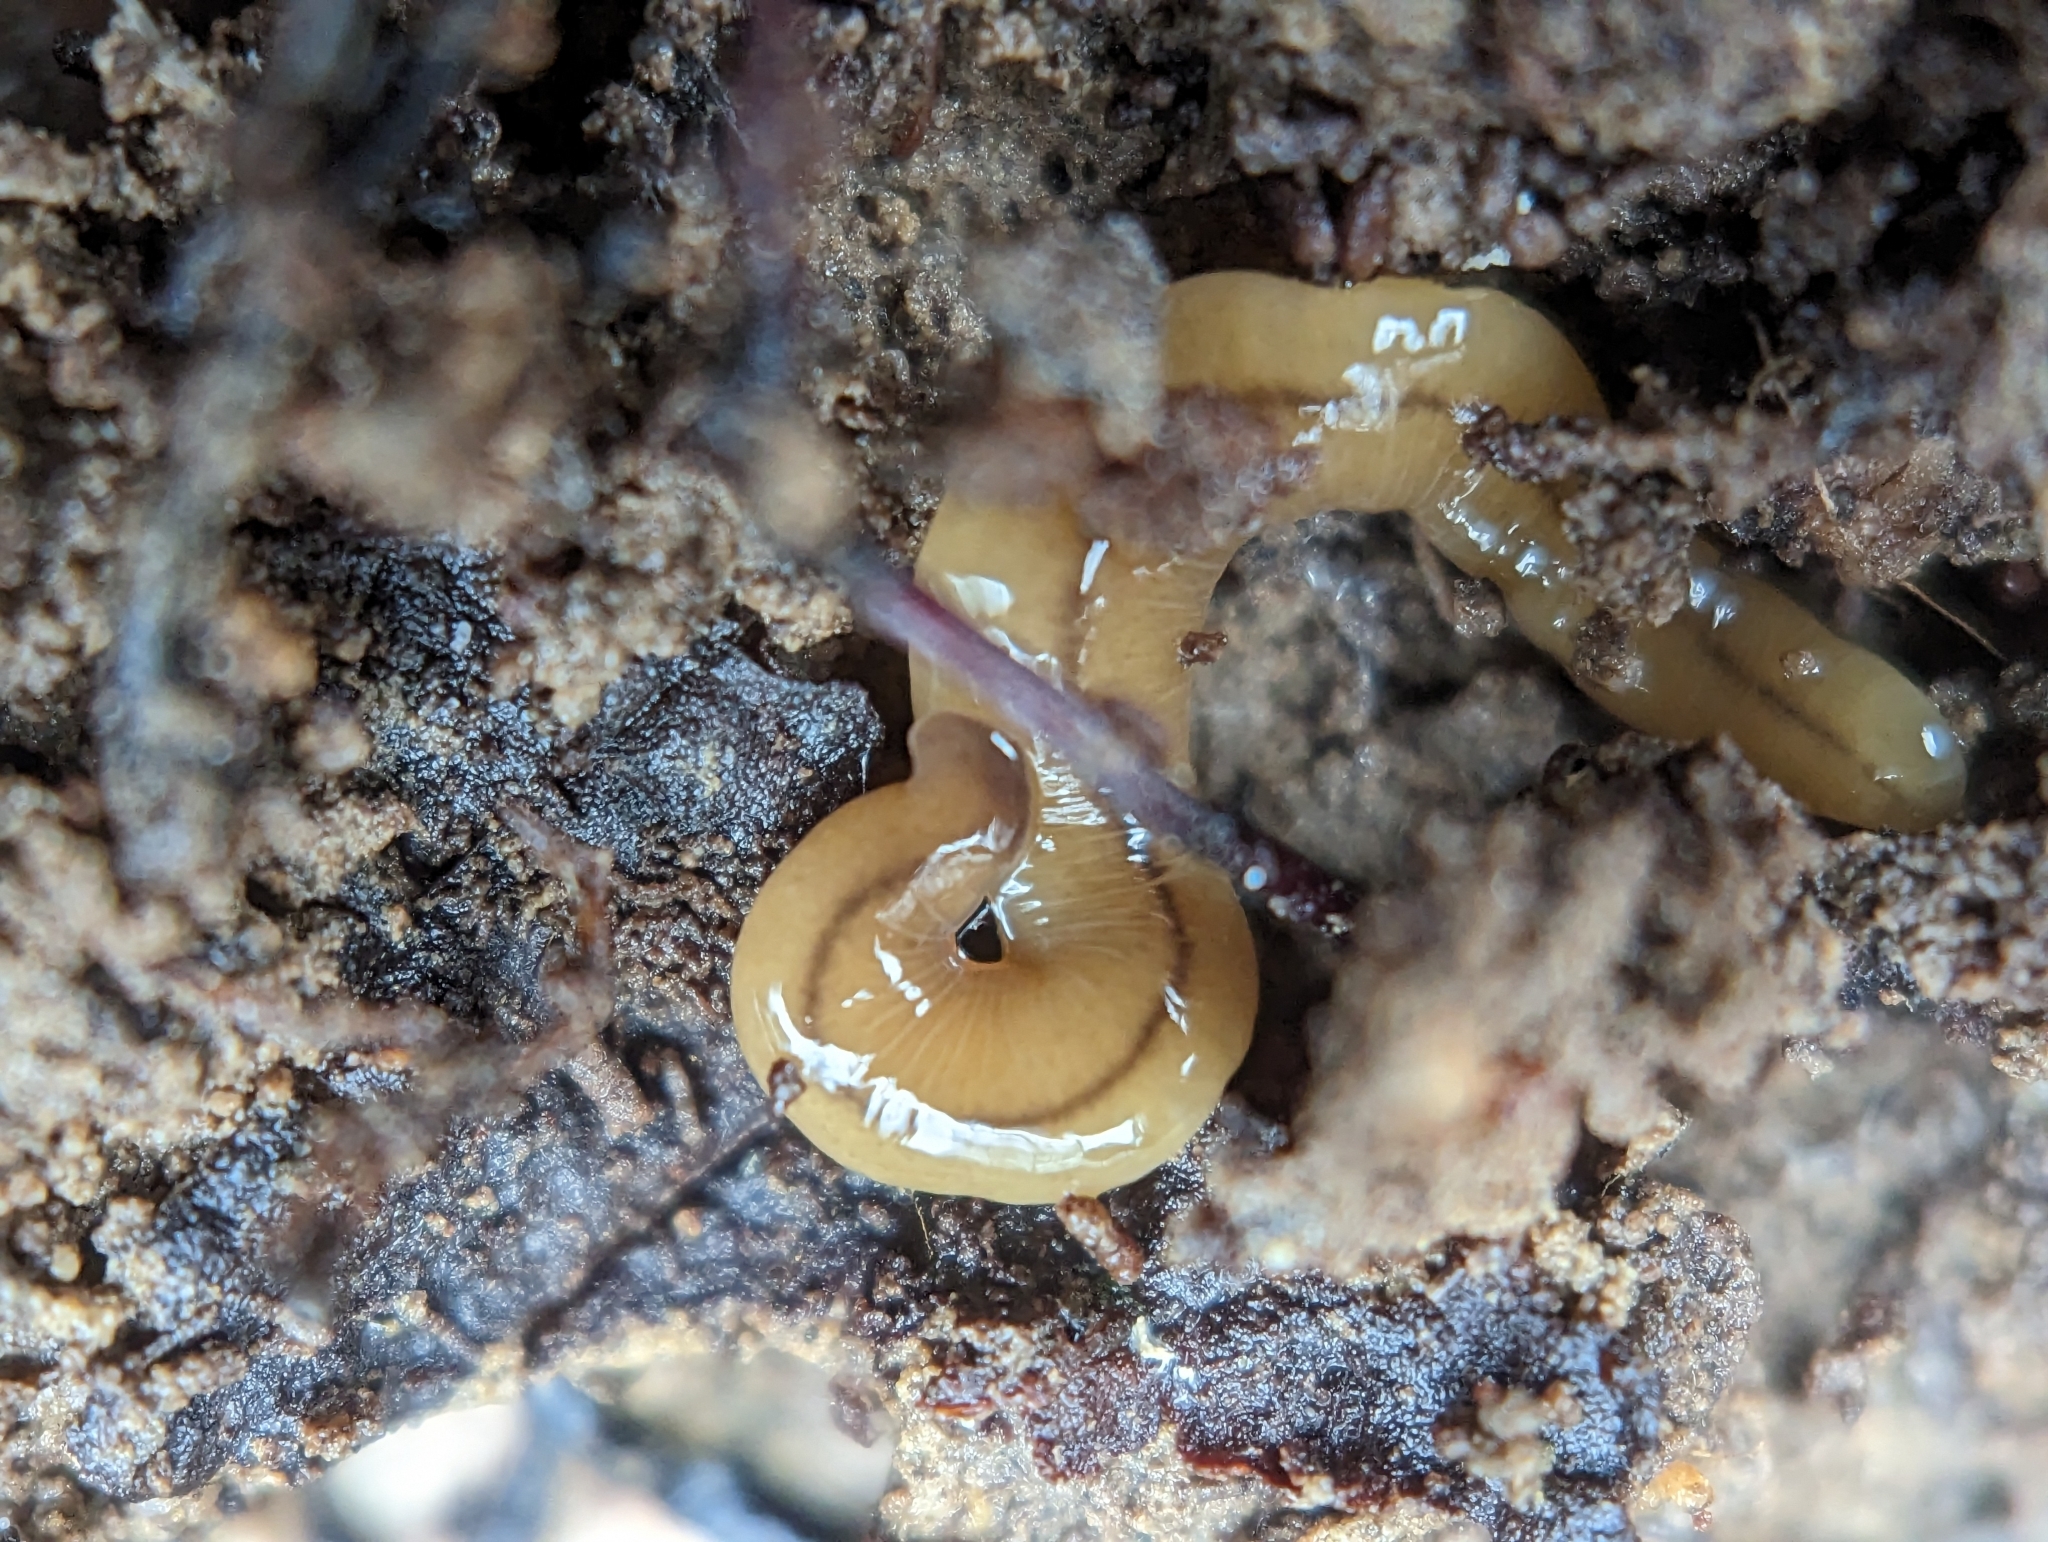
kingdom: Animalia
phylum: Platyhelminthes
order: Tricladida
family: Geoplanidae
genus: Bipalium
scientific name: Bipalium adventitium
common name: Land planarian
